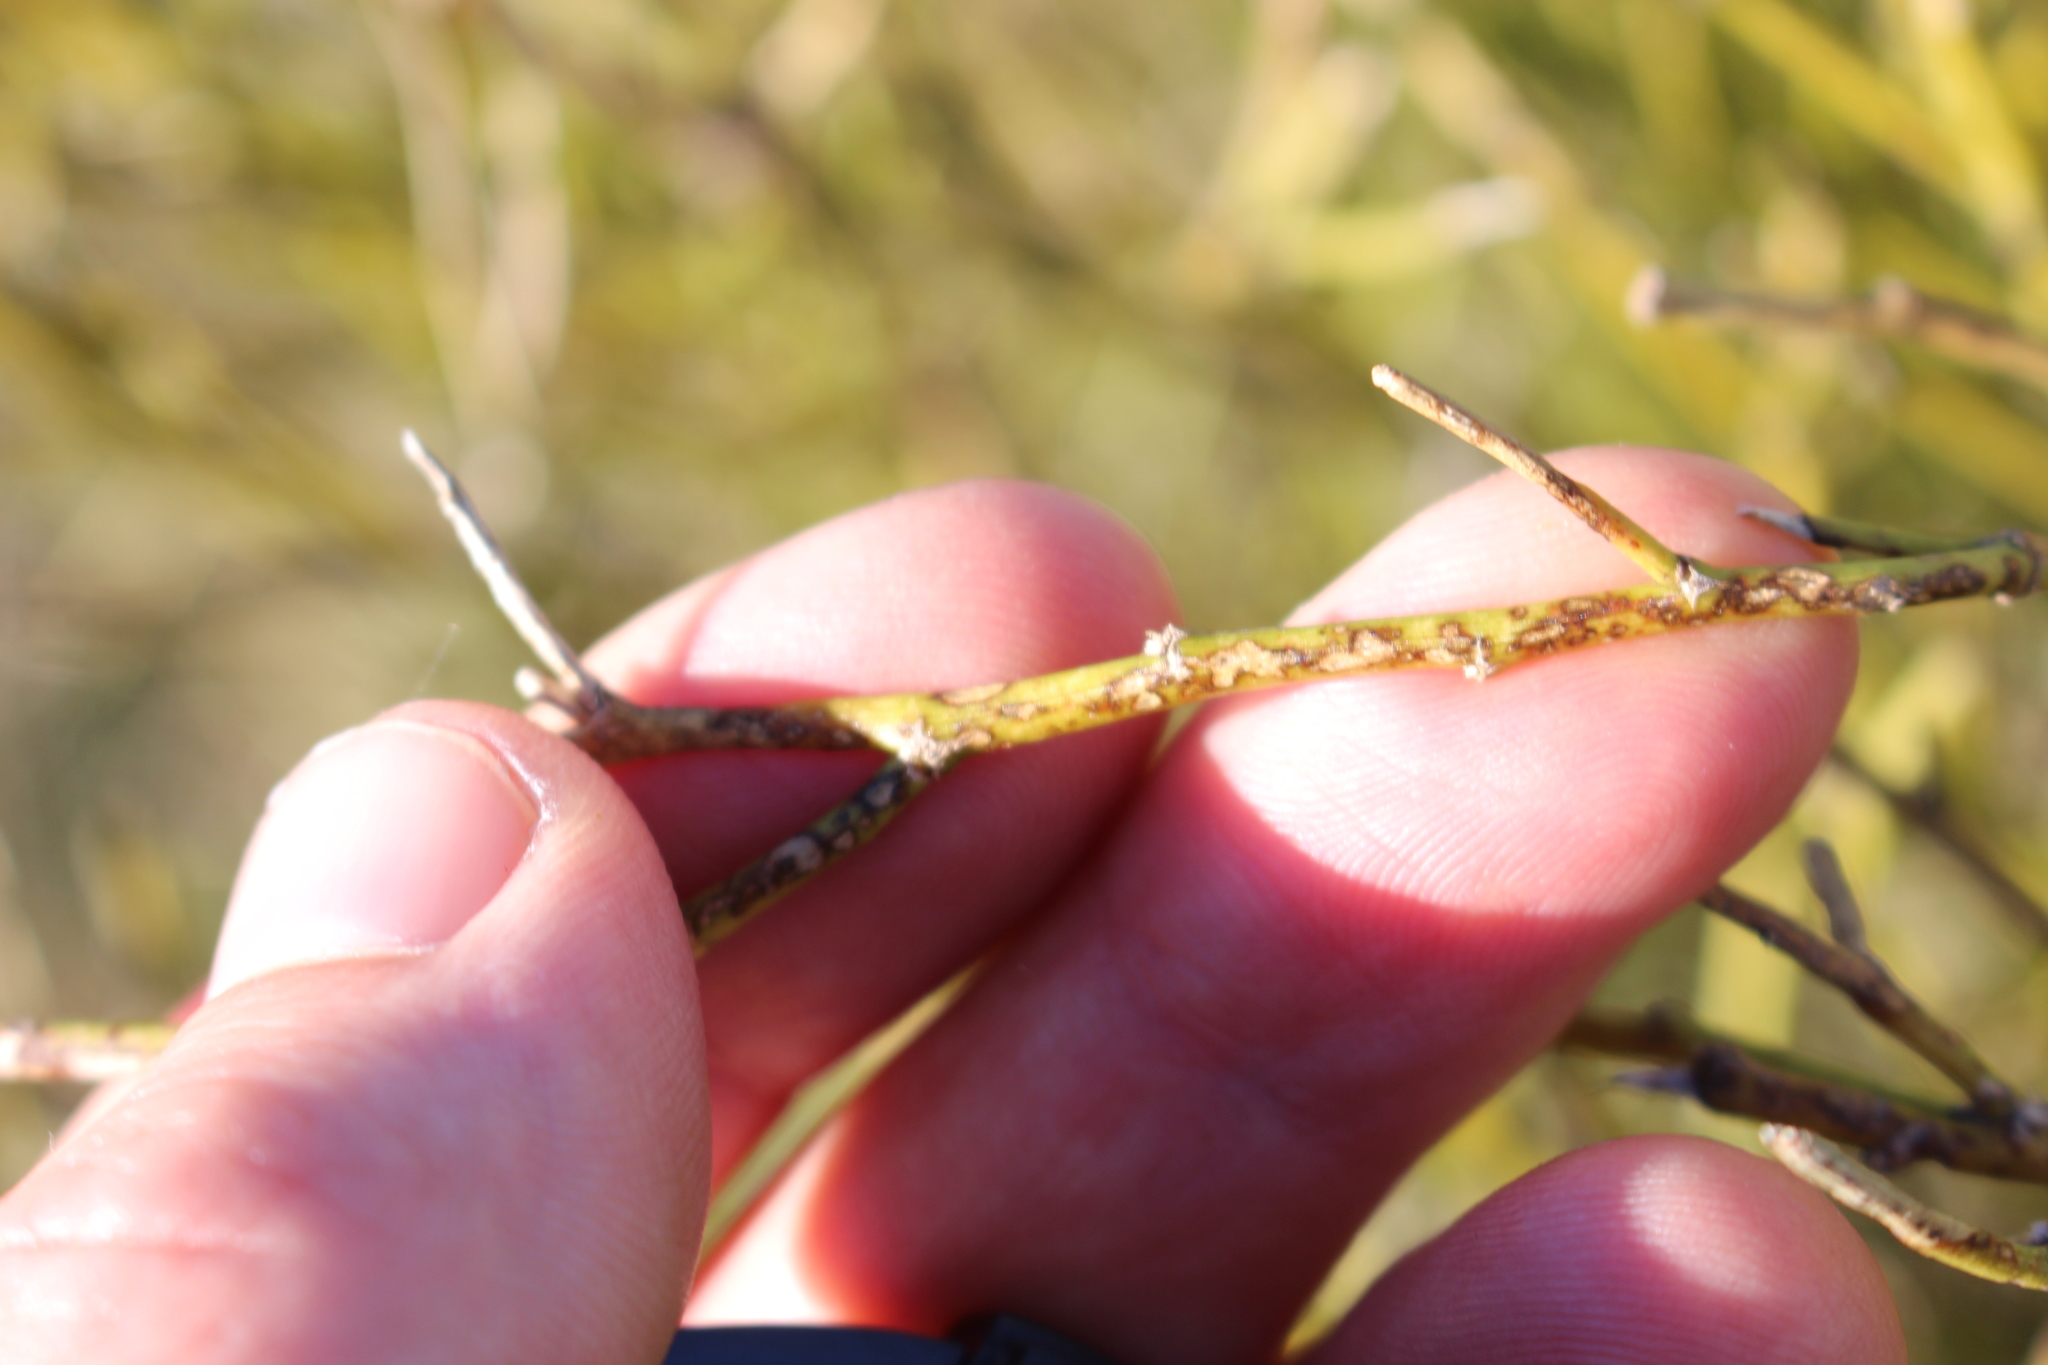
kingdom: Plantae
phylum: Tracheophyta
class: Magnoliopsida
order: Fabales
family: Fabaceae
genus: Carmichaelia
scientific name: Carmichaelia australis
